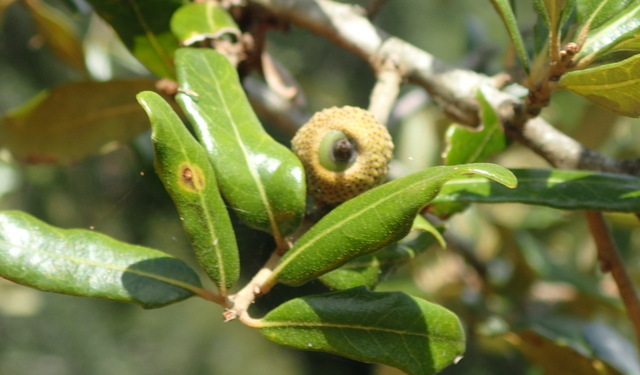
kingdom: Plantae
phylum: Tracheophyta
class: Magnoliopsida
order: Fagales
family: Fagaceae
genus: Quercus
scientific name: Quercus virginiana
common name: Southern live oak
